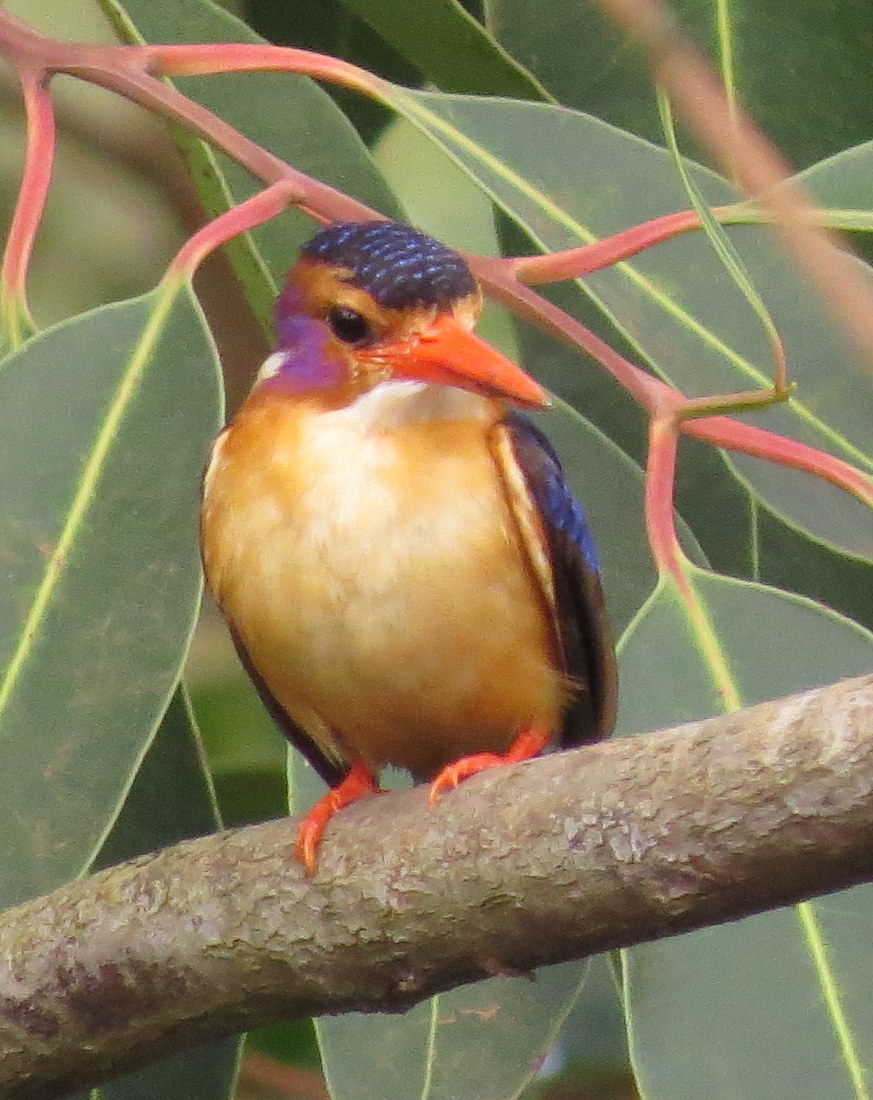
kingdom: Animalia
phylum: Chordata
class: Aves
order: Coraciiformes
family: Alcedinidae
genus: Ispidina
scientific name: Ispidina picta
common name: African pygmy-kingfisher
